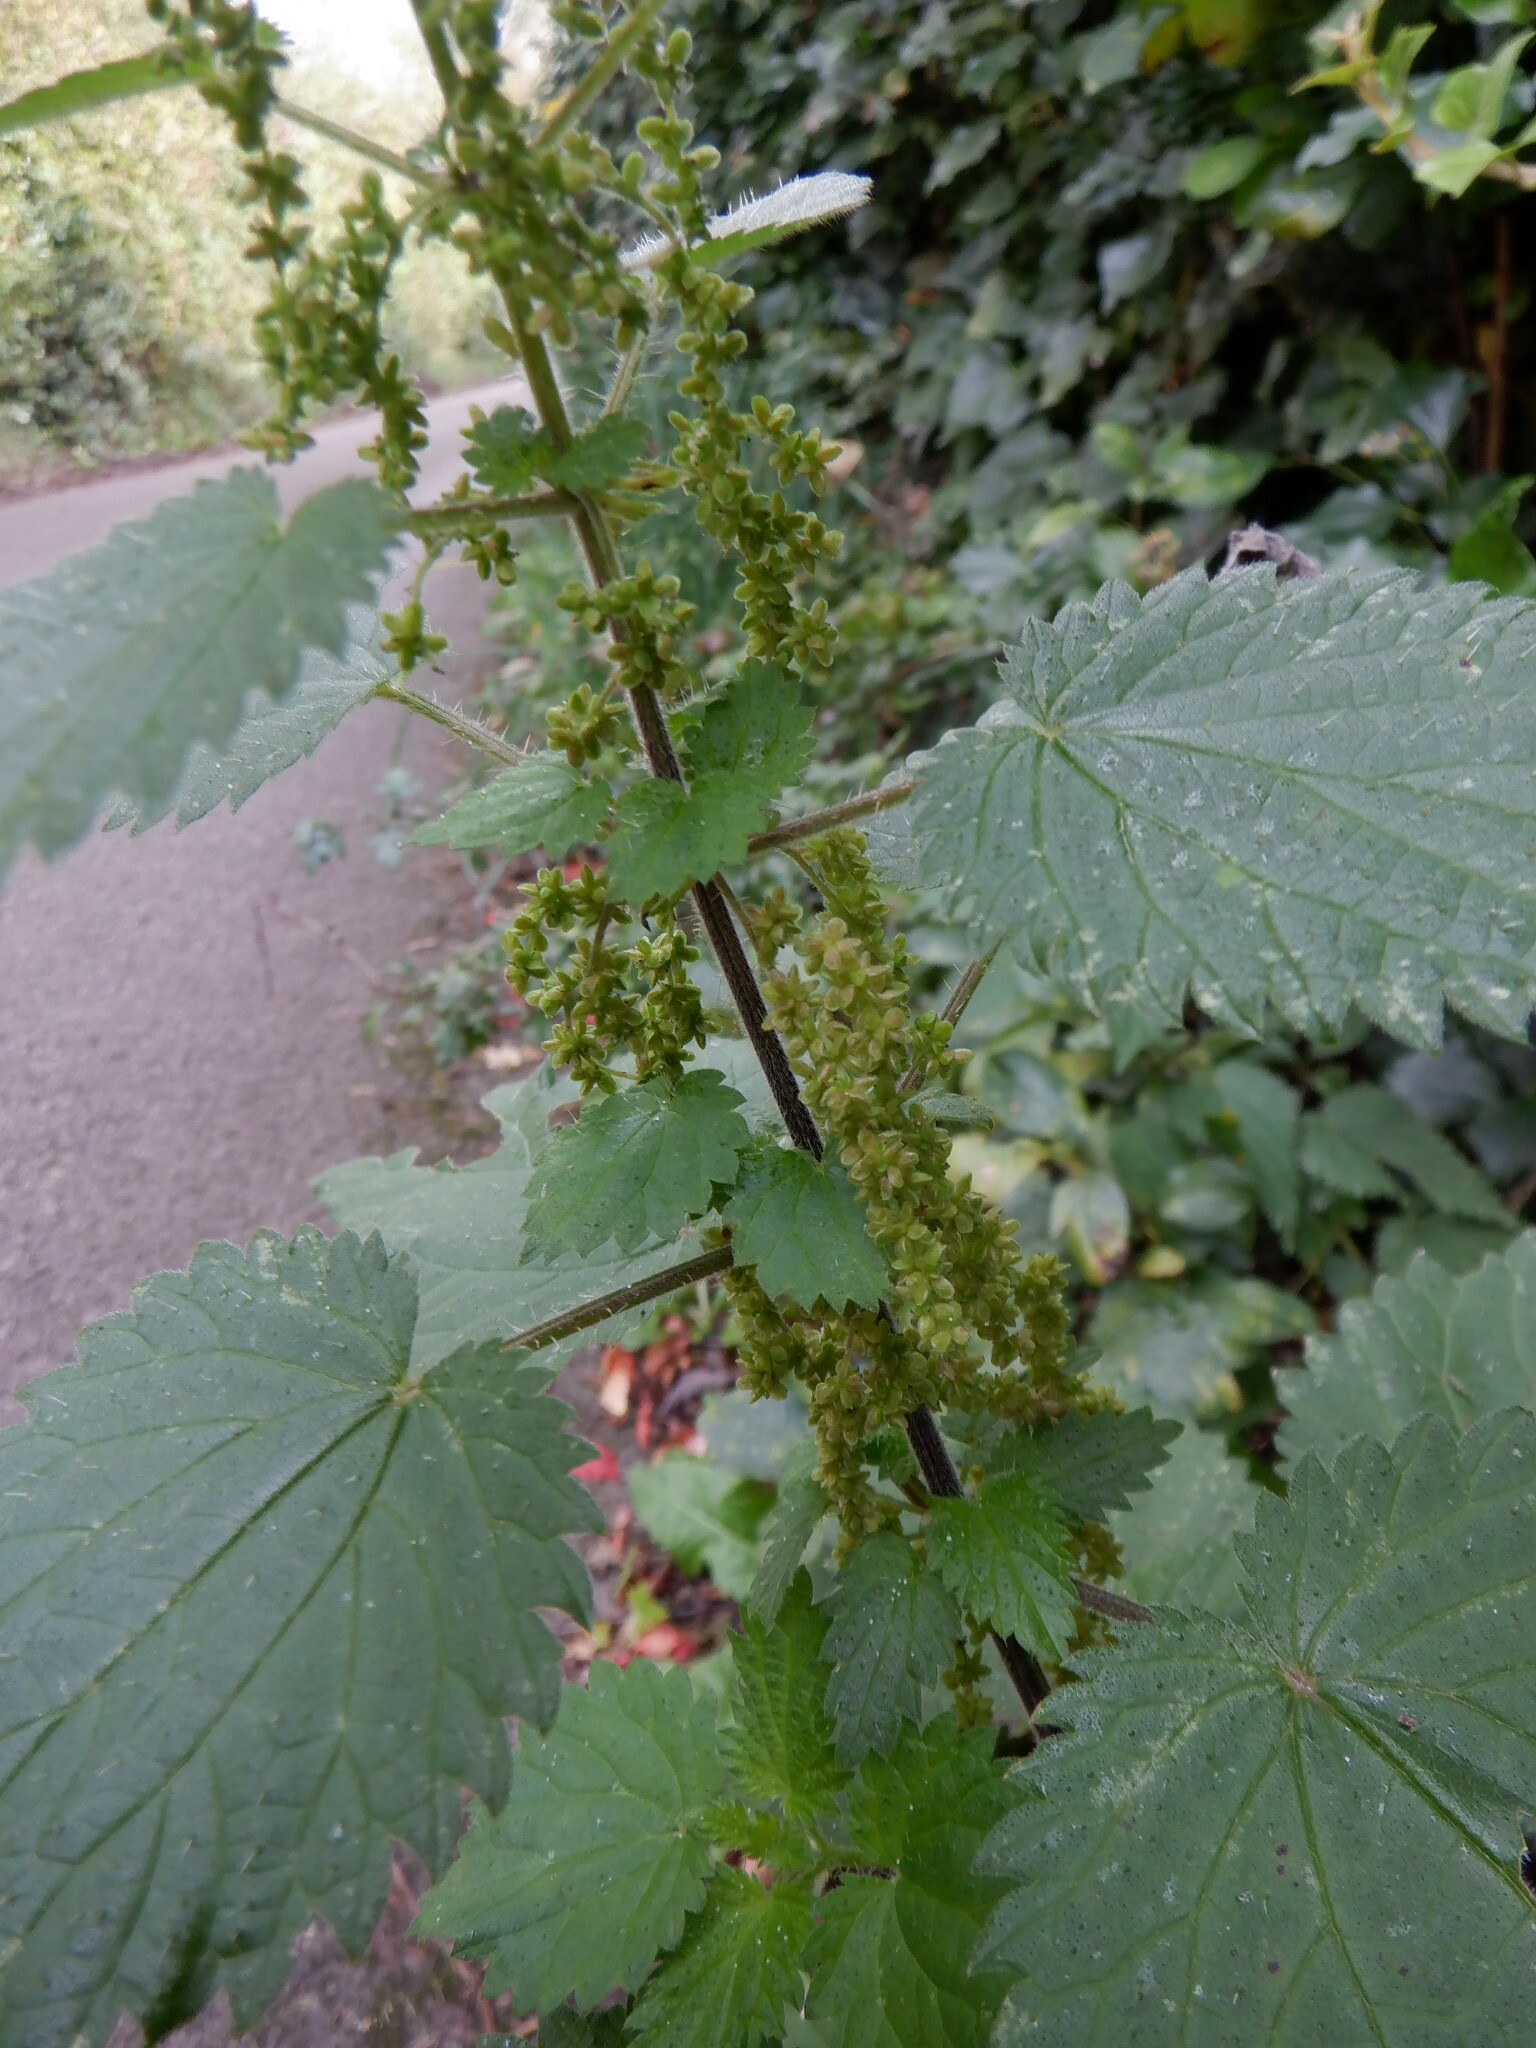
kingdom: Plantae
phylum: Tracheophyta
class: Magnoliopsida
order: Rosales
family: Urticaceae
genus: Urtica
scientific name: Urtica dioica
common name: Common nettle
